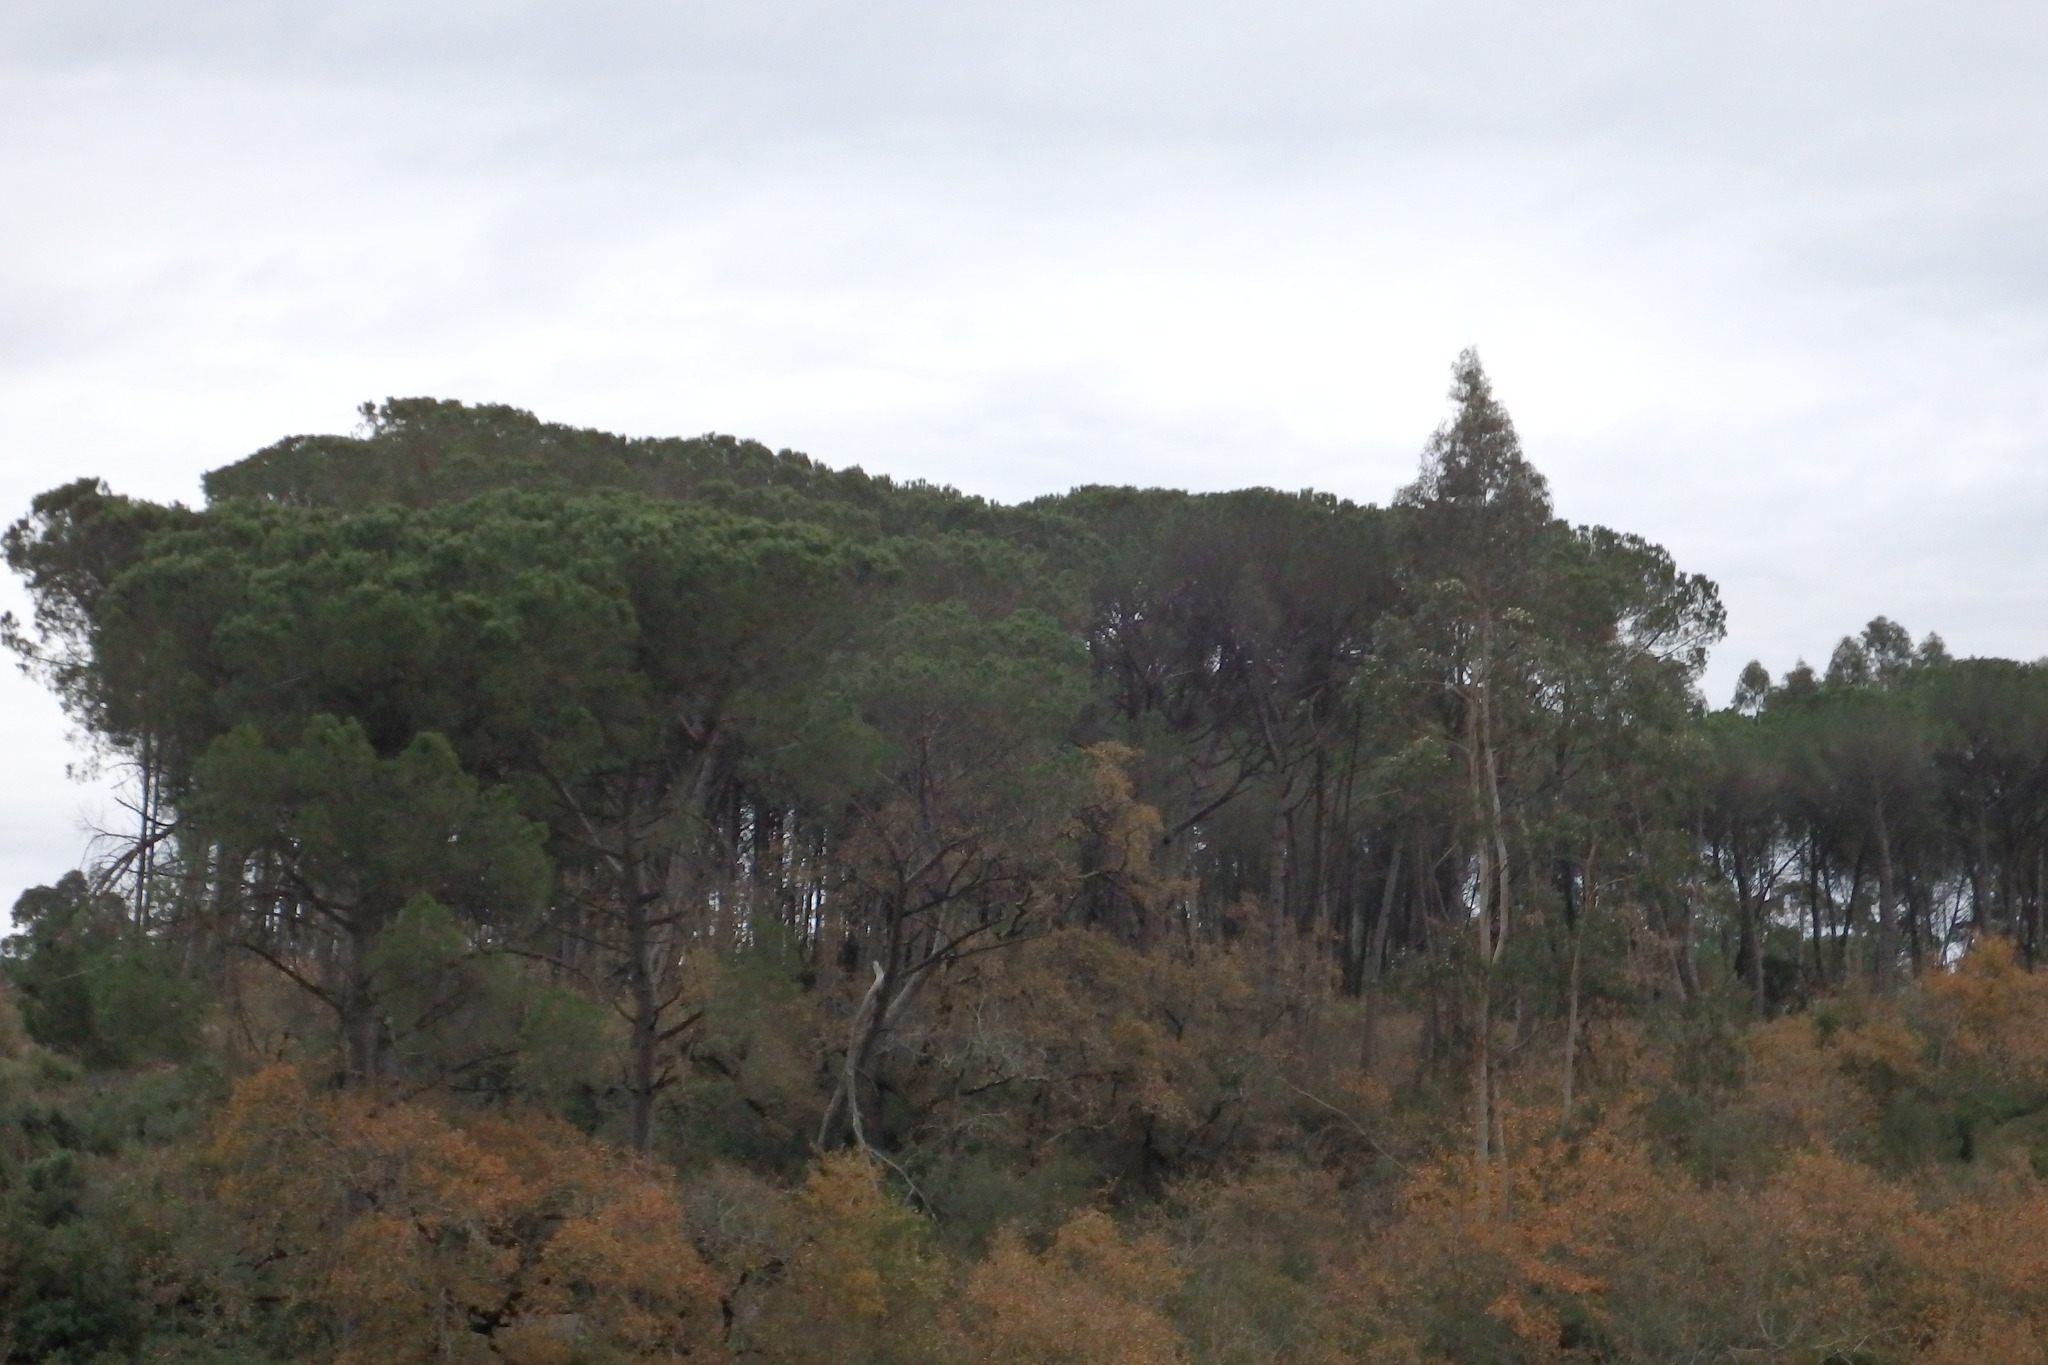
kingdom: Plantae
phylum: Tracheophyta
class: Pinopsida
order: Pinales
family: Pinaceae
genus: Pinus
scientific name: Pinus pinea
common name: Italian stone pine
